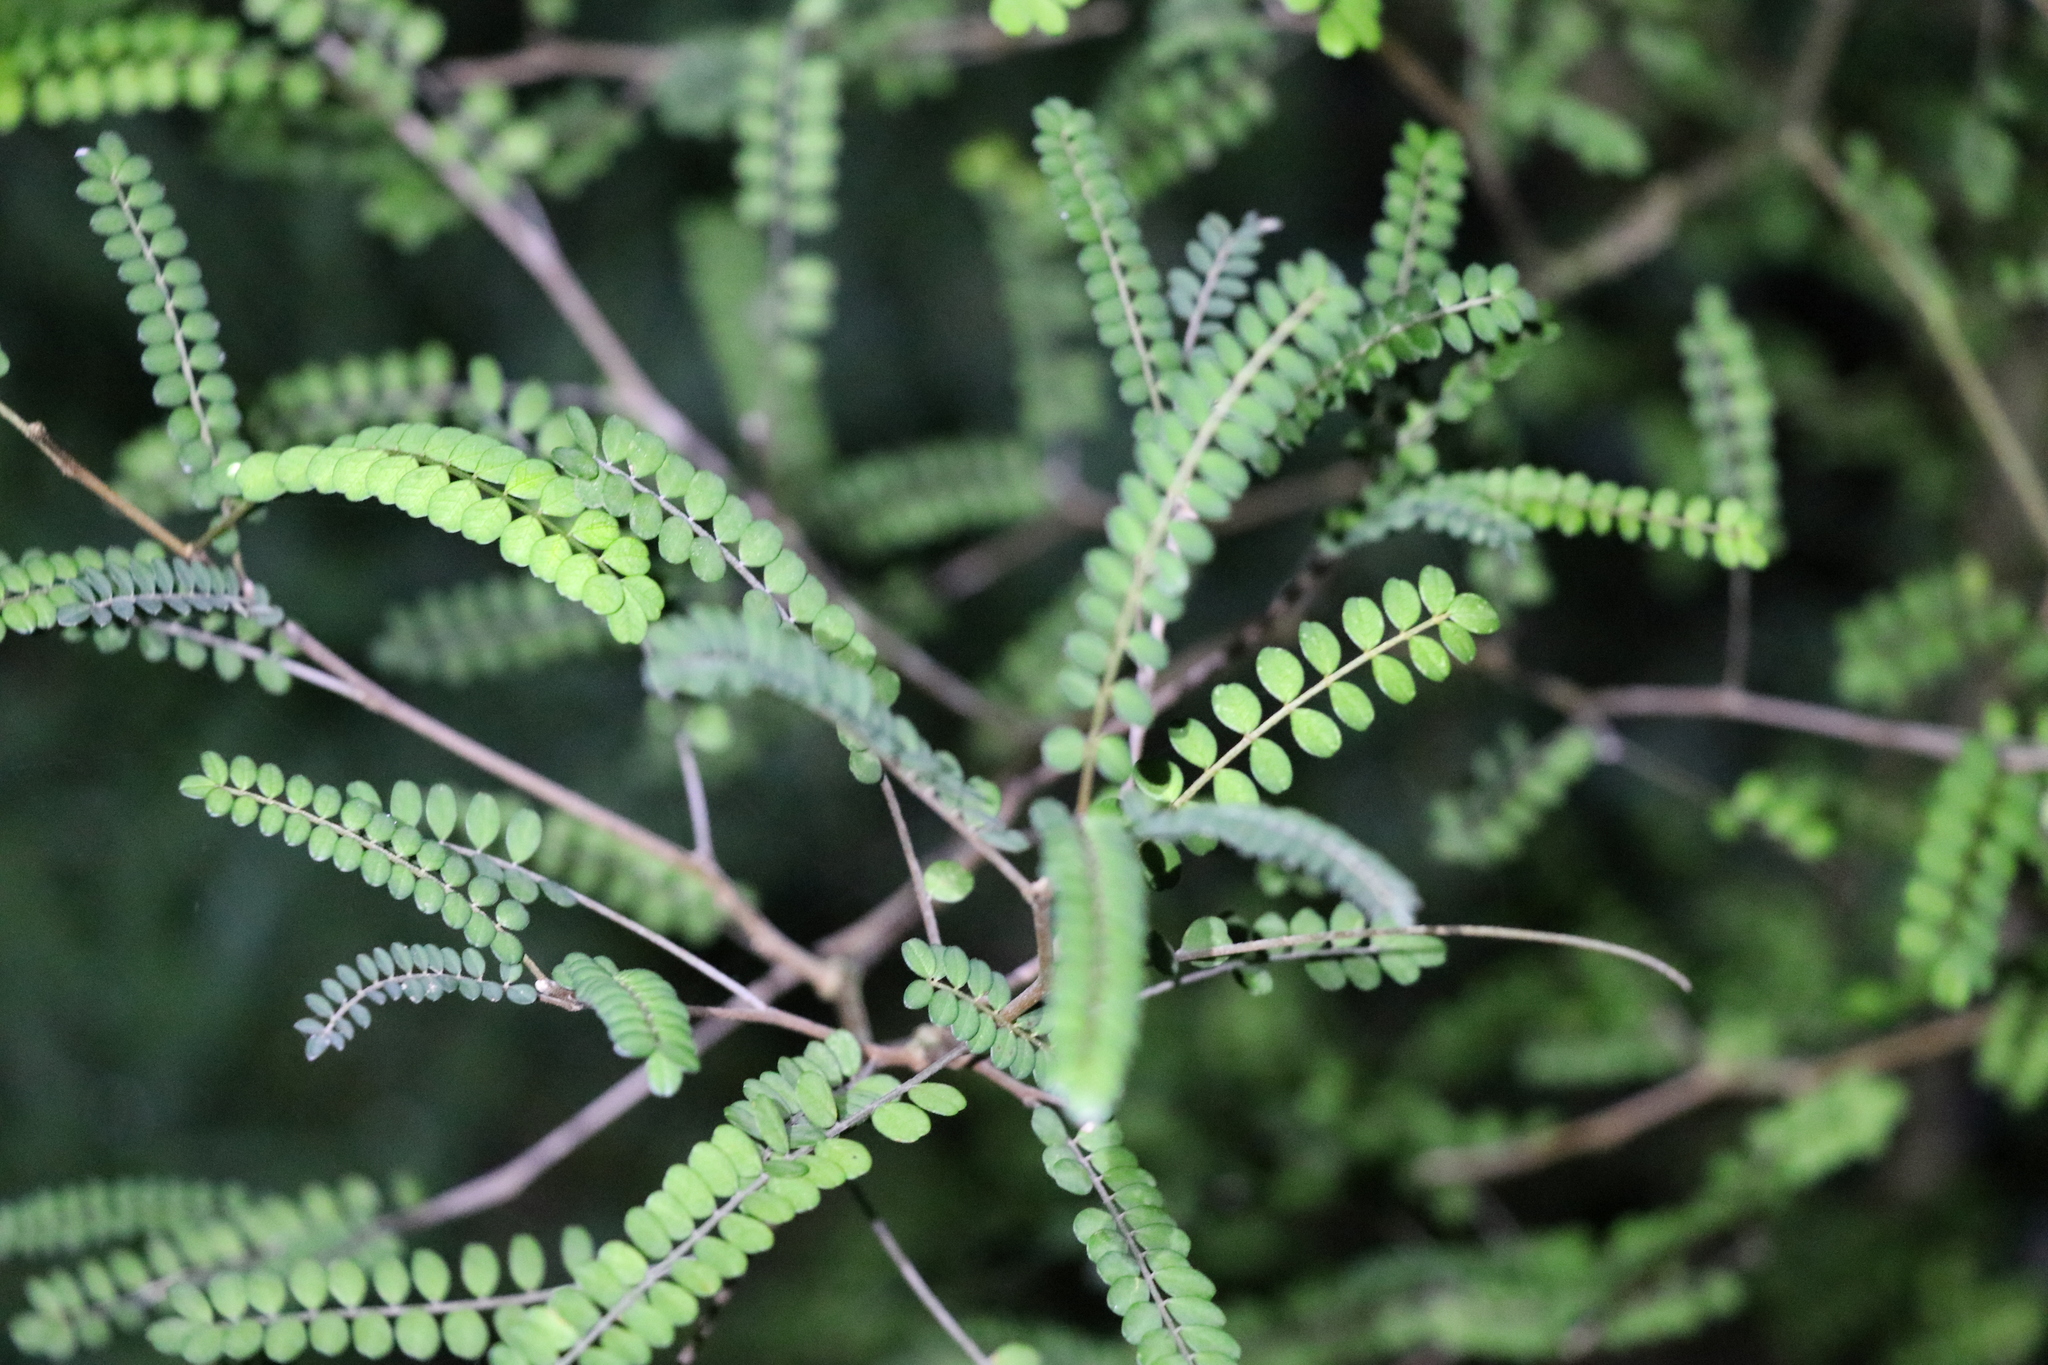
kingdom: Plantae
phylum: Tracheophyta
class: Magnoliopsida
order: Fabales
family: Fabaceae
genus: Sophora
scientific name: Sophora microphylla
